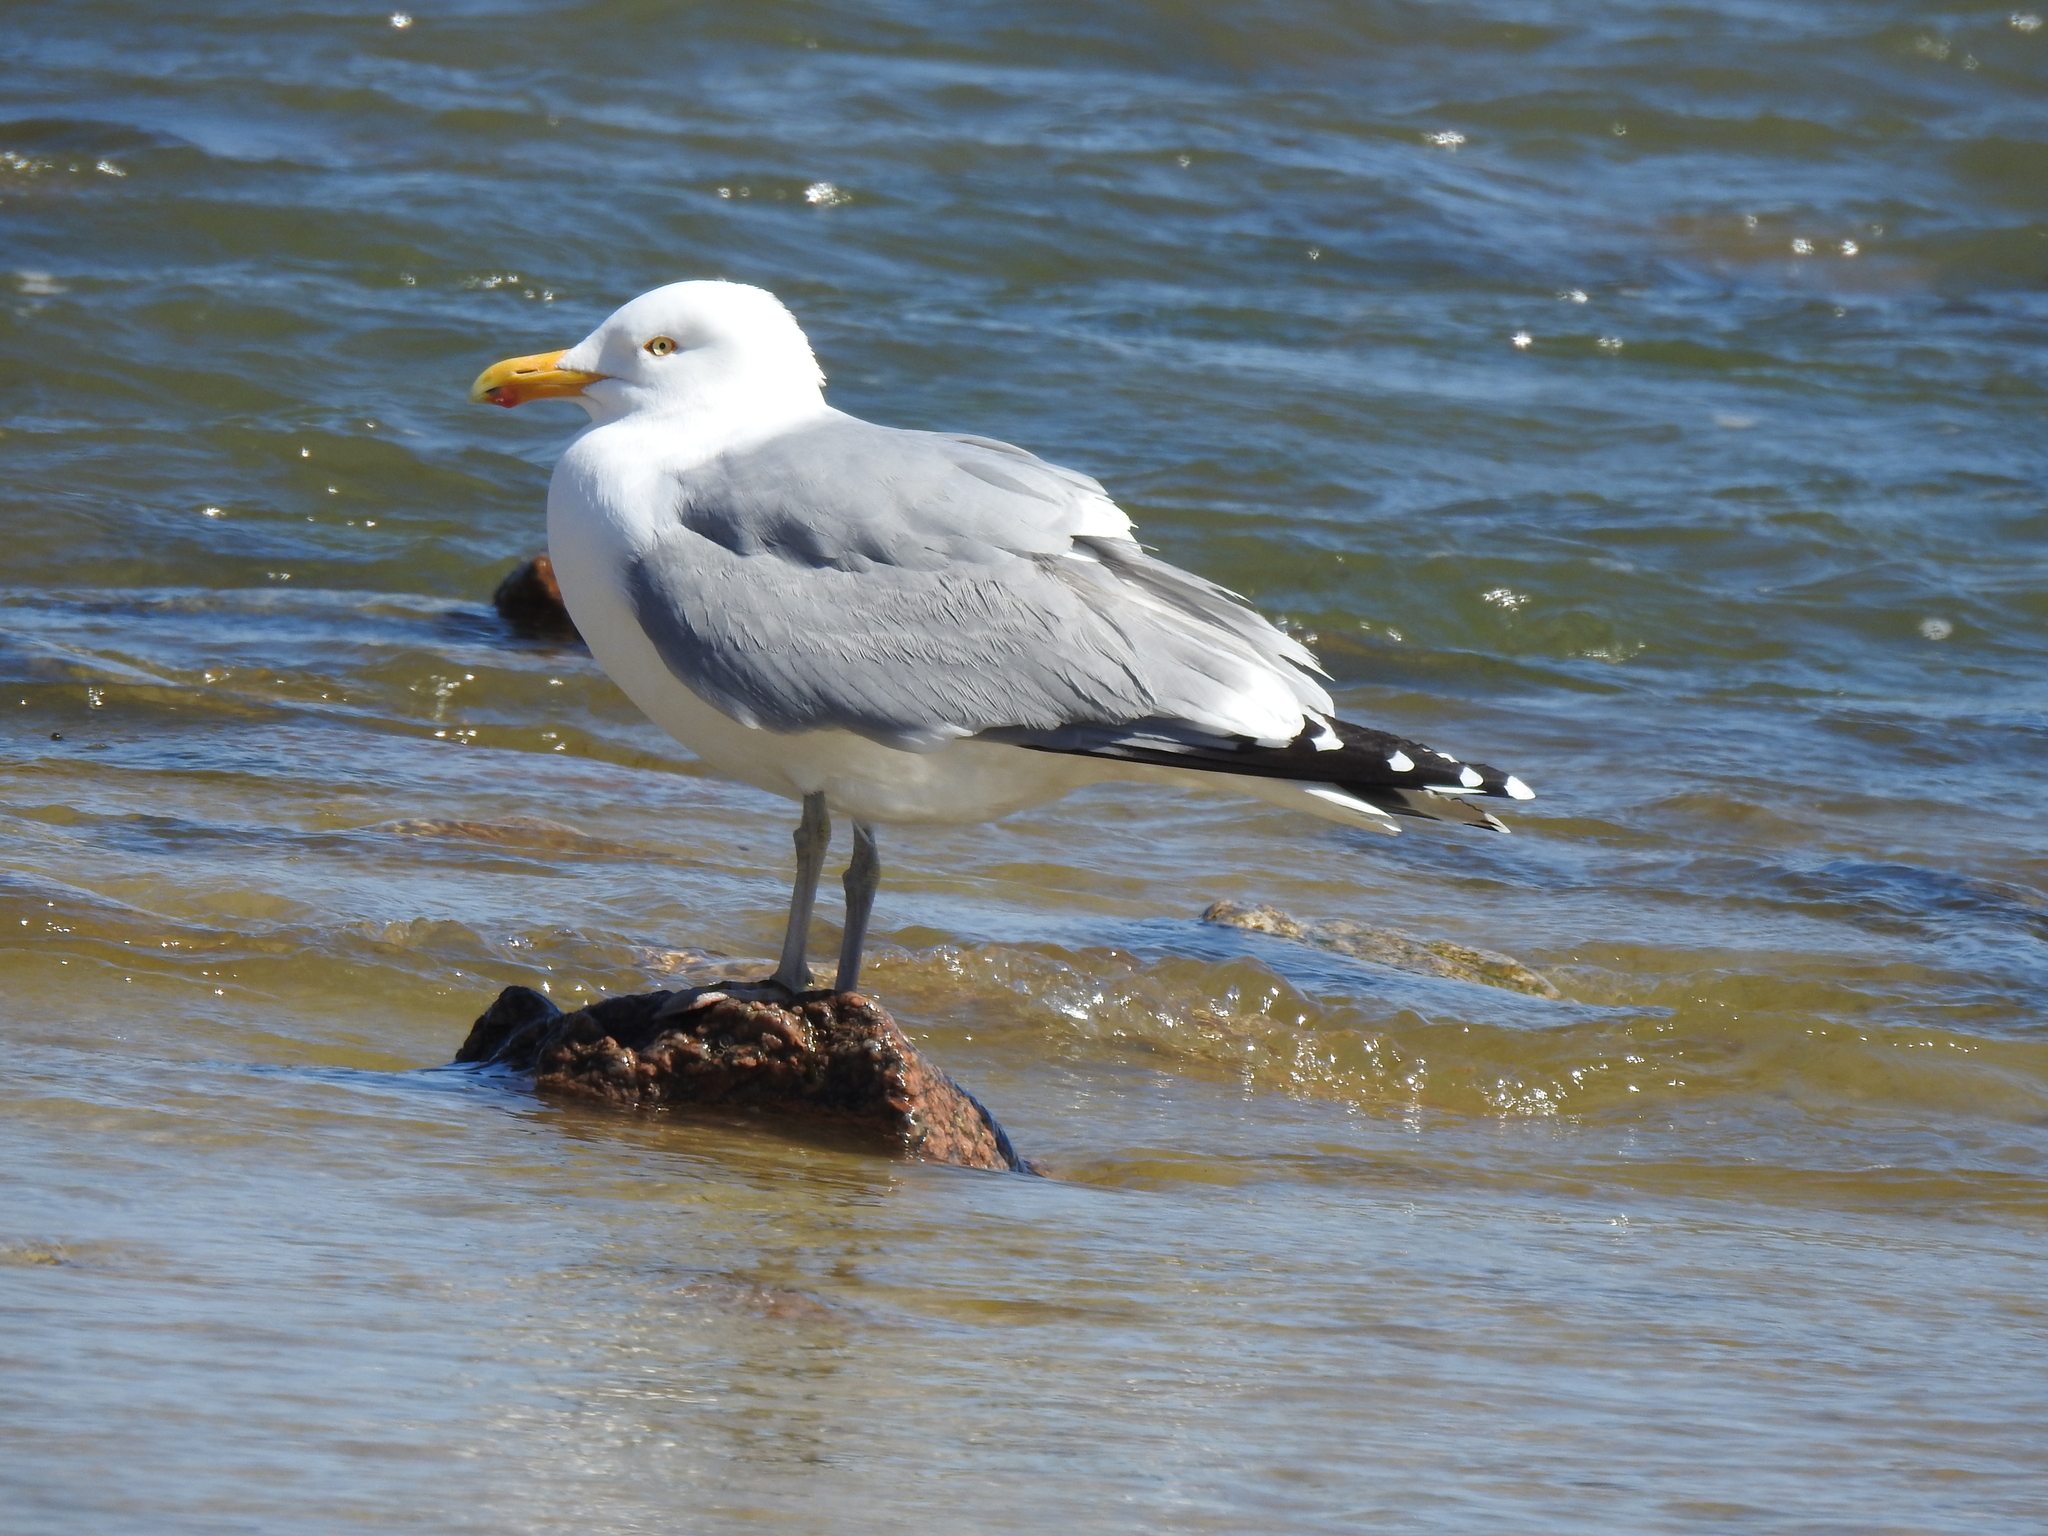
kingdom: Animalia
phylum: Chordata
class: Aves
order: Charadriiformes
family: Laridae
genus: Larus
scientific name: Larus argentatus
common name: Herring gull
